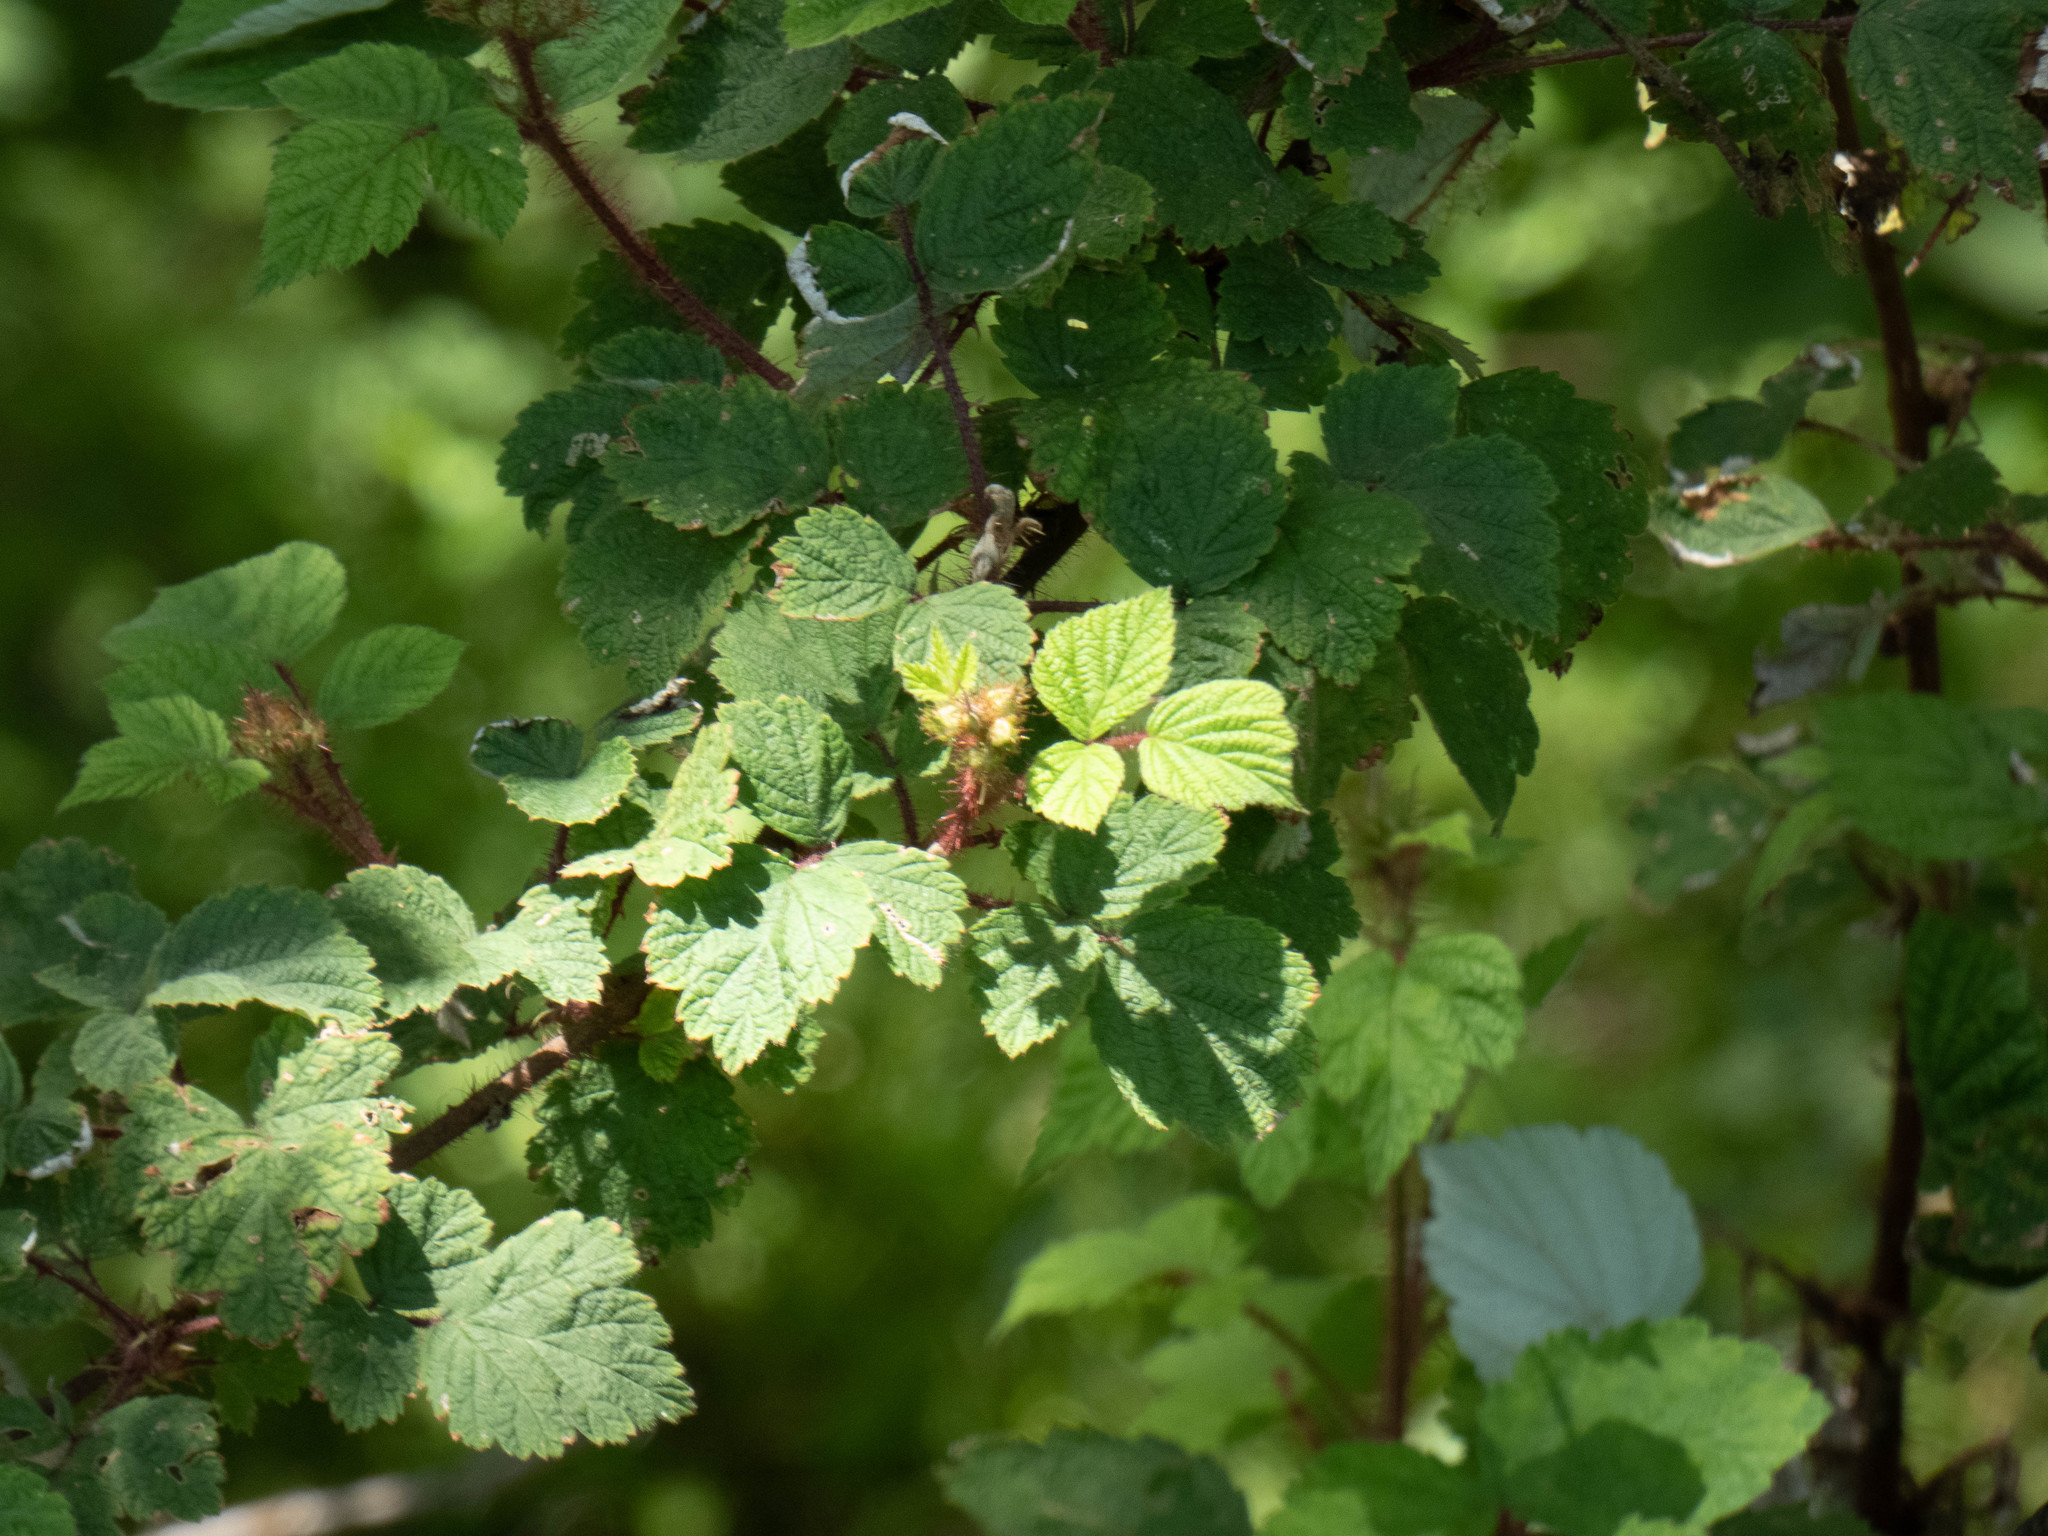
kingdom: Plantae
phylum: Tracheophyta
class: Magnoliopsida
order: Rosales
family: Rosaceae
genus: Rubus
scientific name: Rubus phoenicolasius
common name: Japanese wineberry
